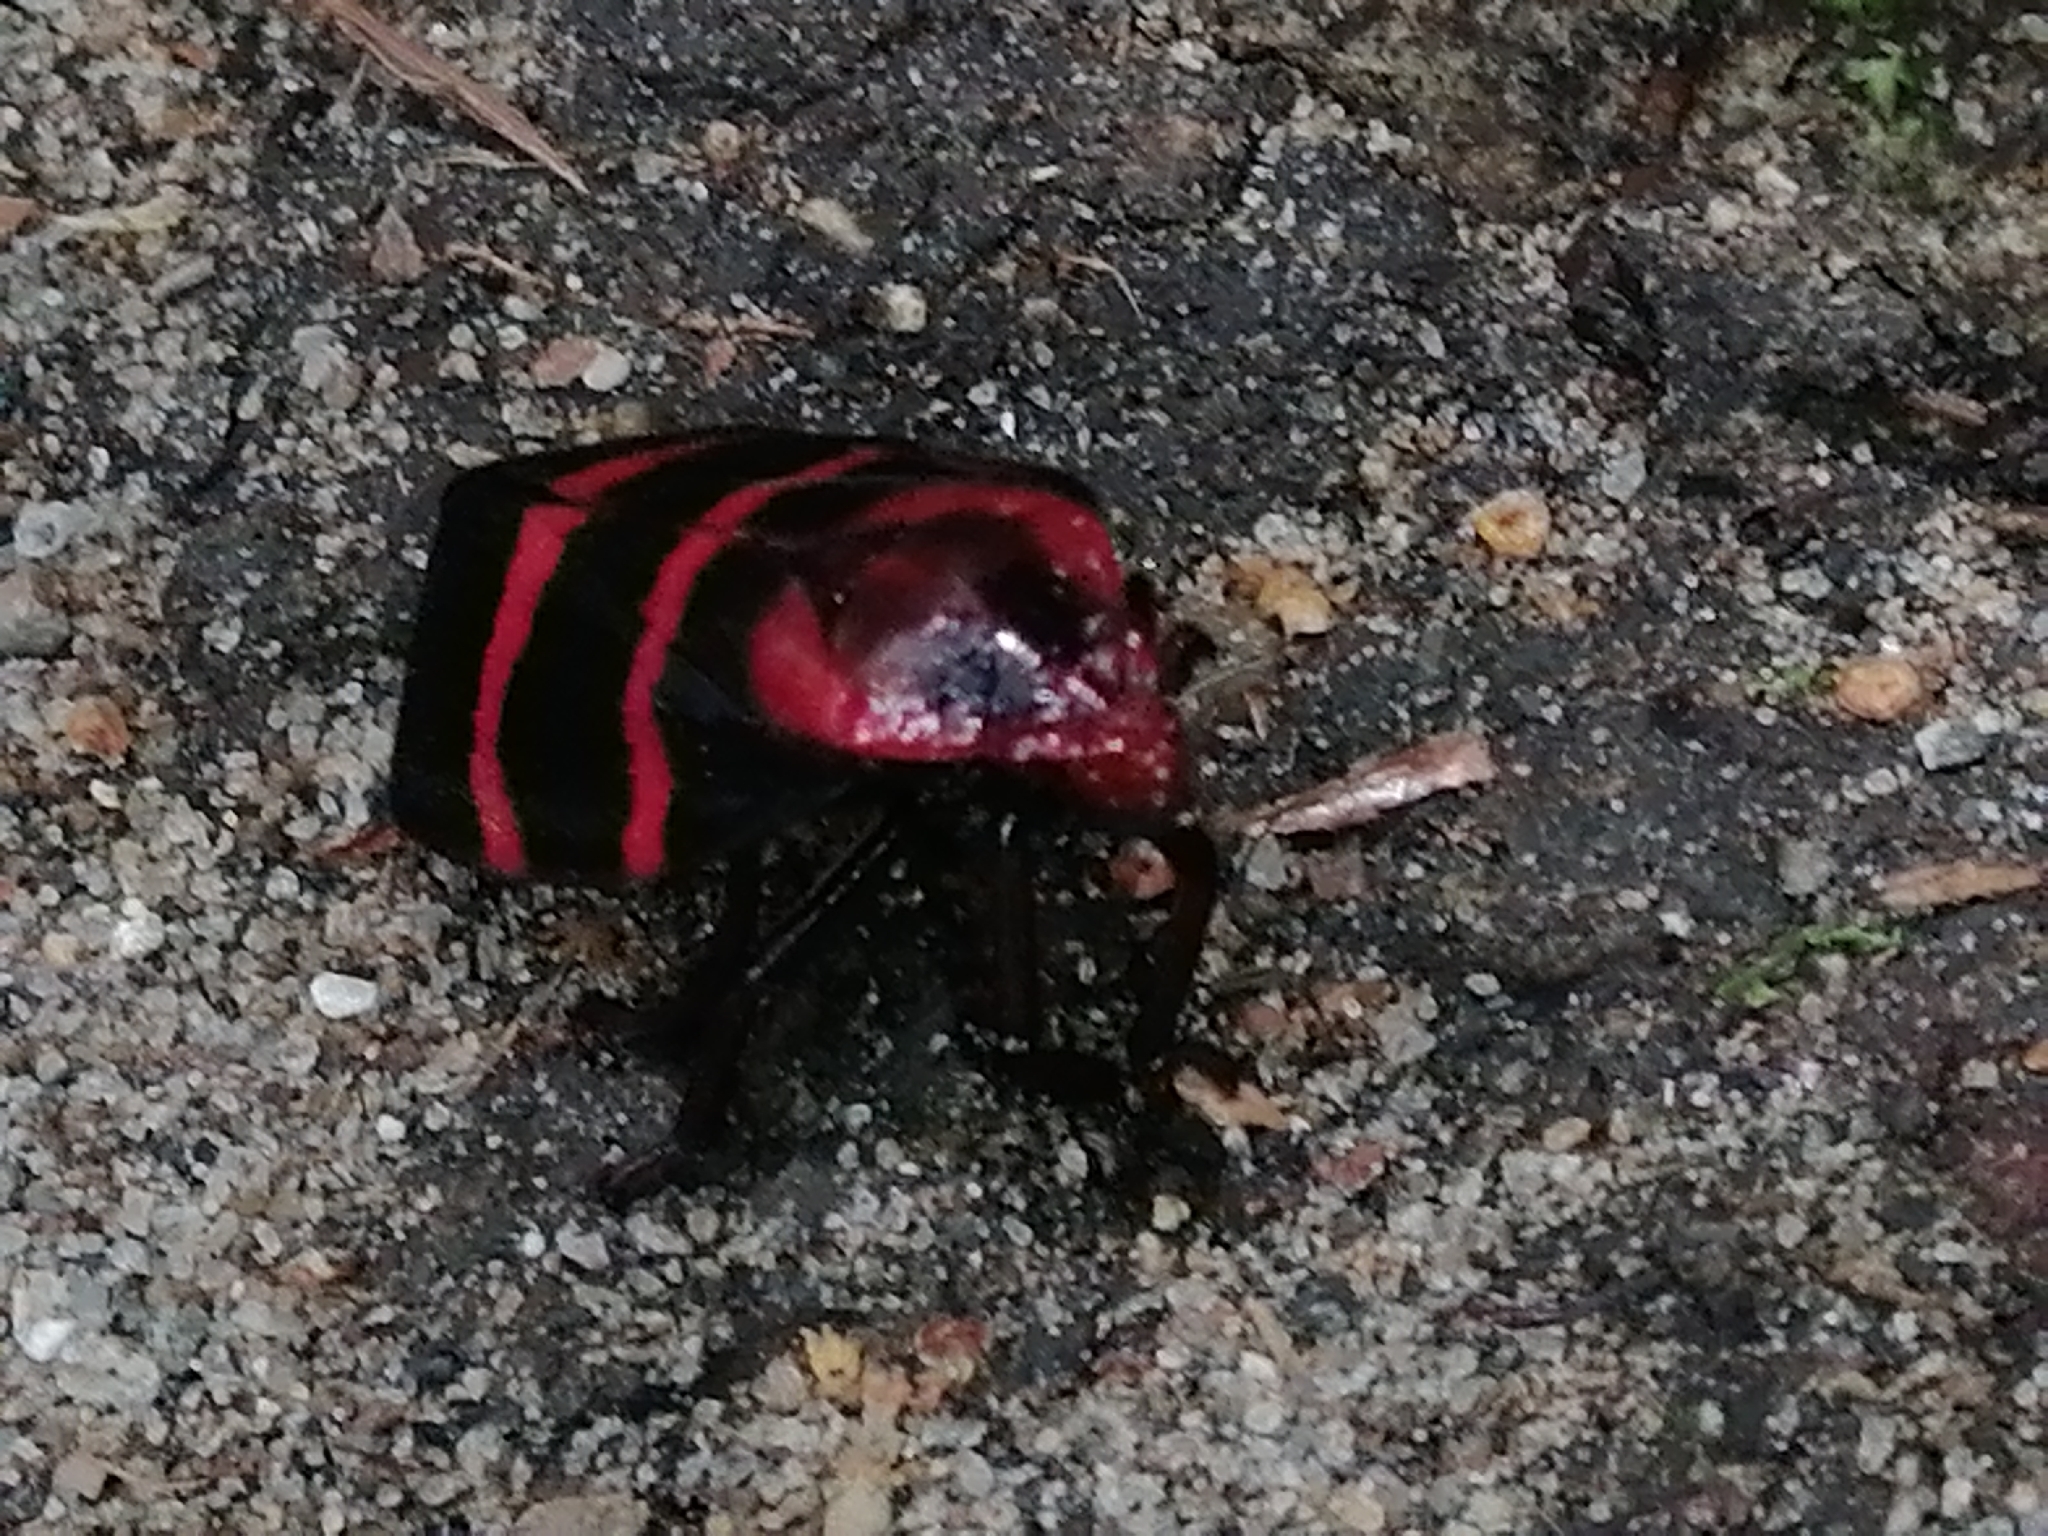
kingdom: Animalia
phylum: Arthropoda
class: Insecta
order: Hemiptera
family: Cercopidae
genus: Huaina
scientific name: Huaina inca
